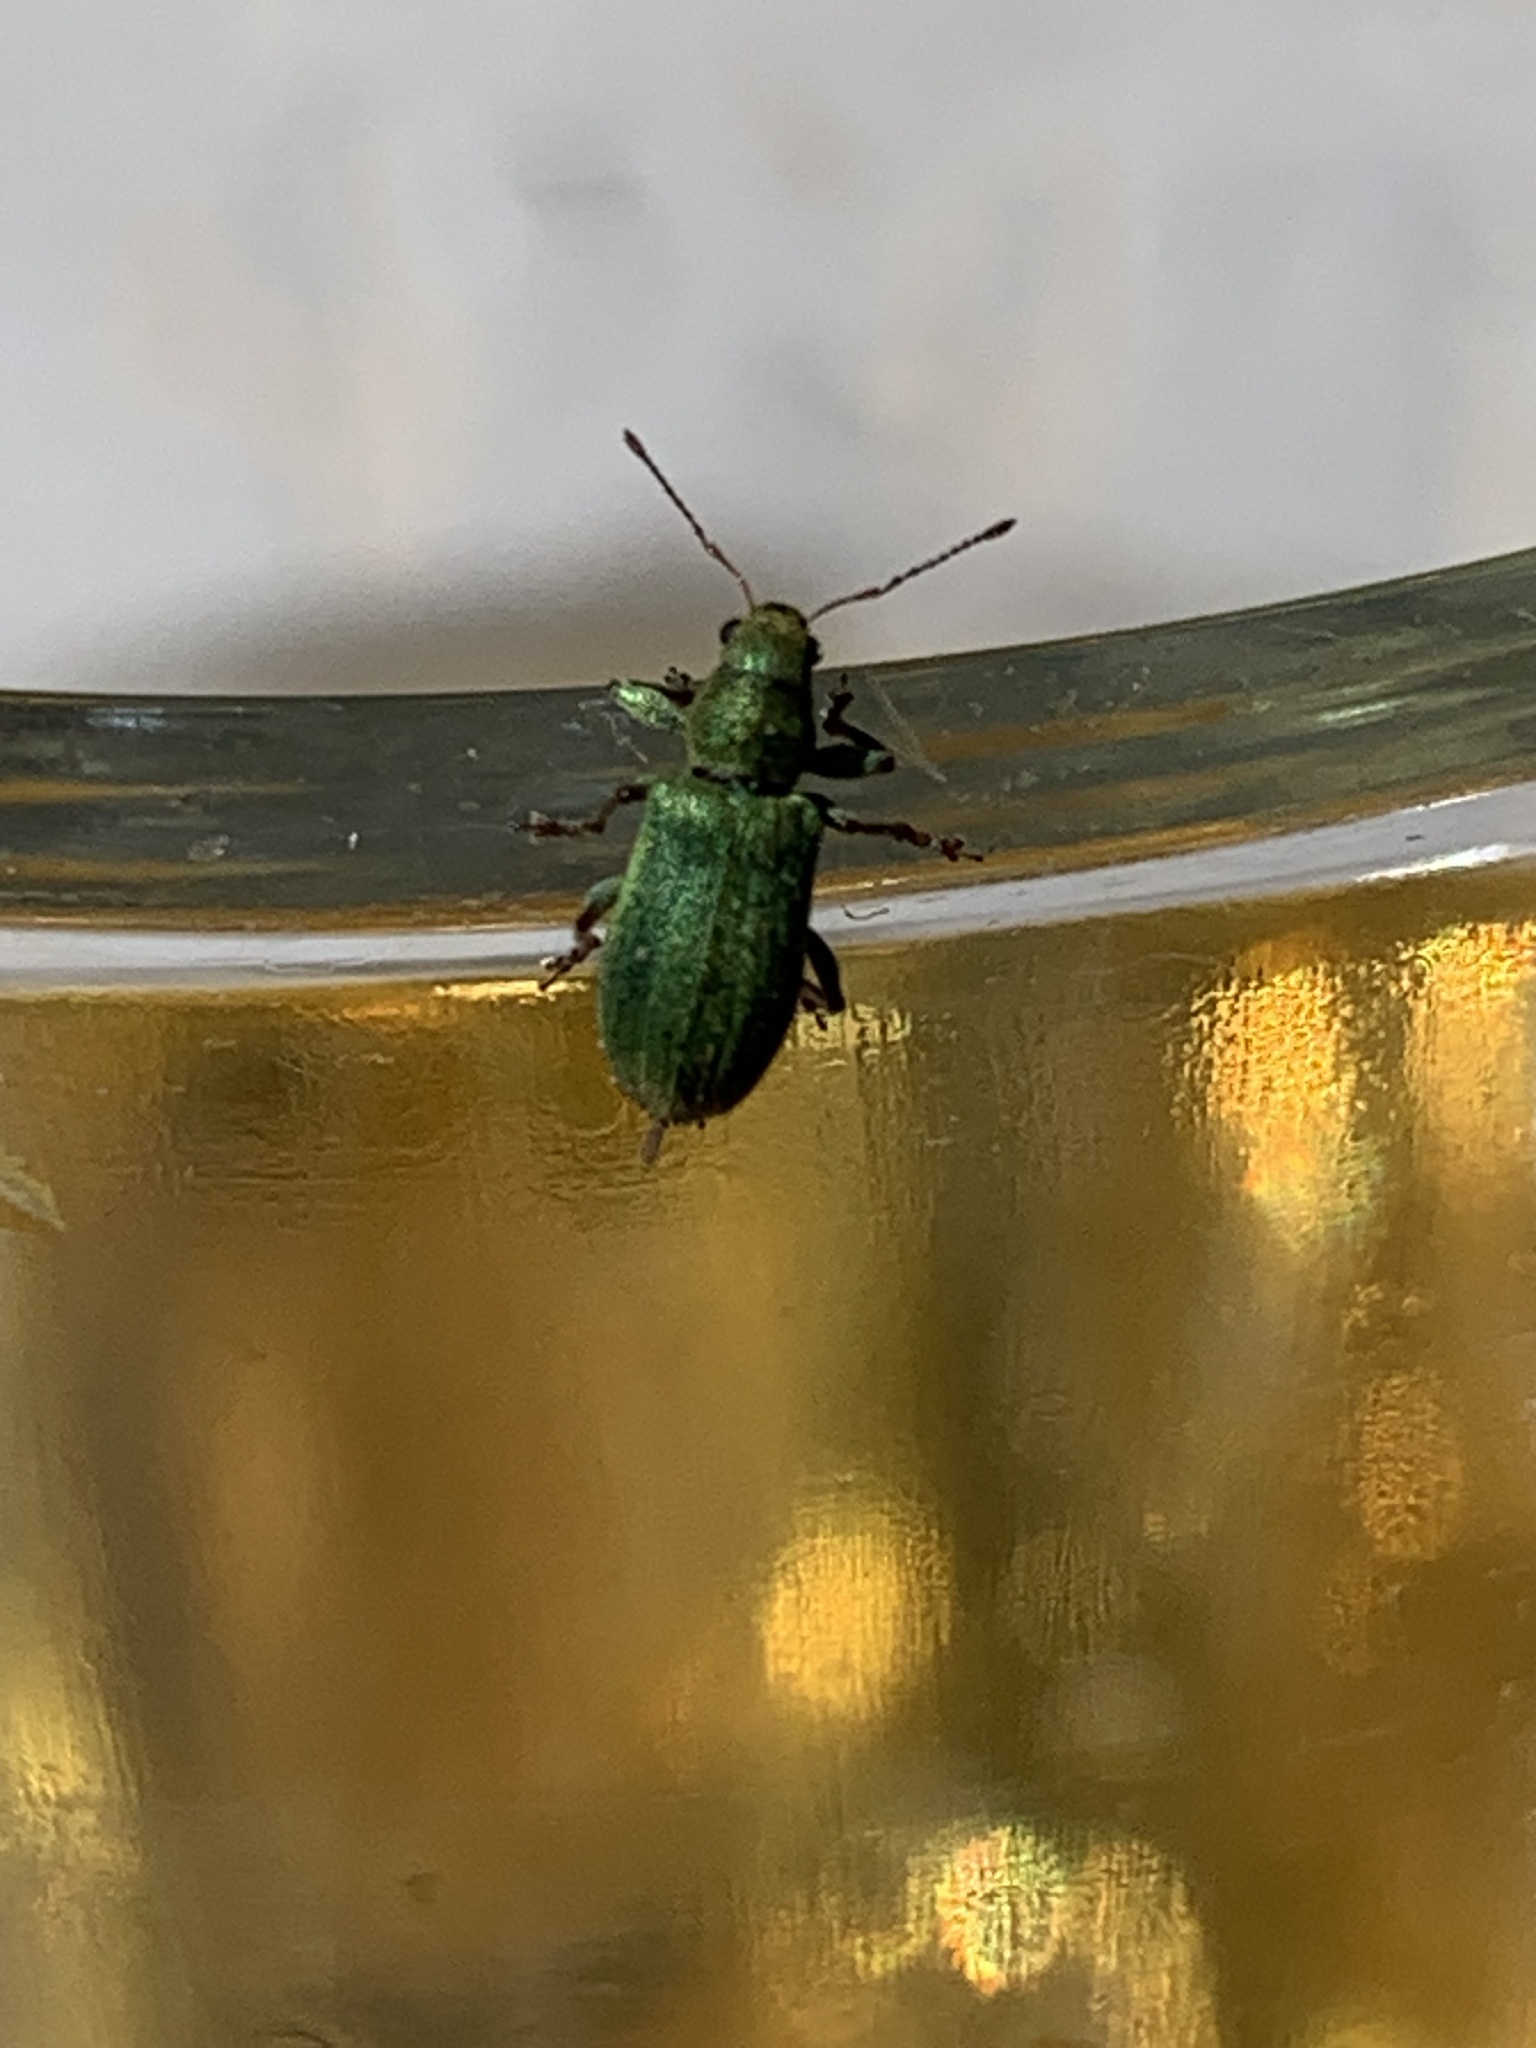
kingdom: Animalia
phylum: Arthropoda
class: Insecta
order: Coleoptera
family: Curculionidae
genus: Pachyrhinus
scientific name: Pachyrhinus lethierryi
